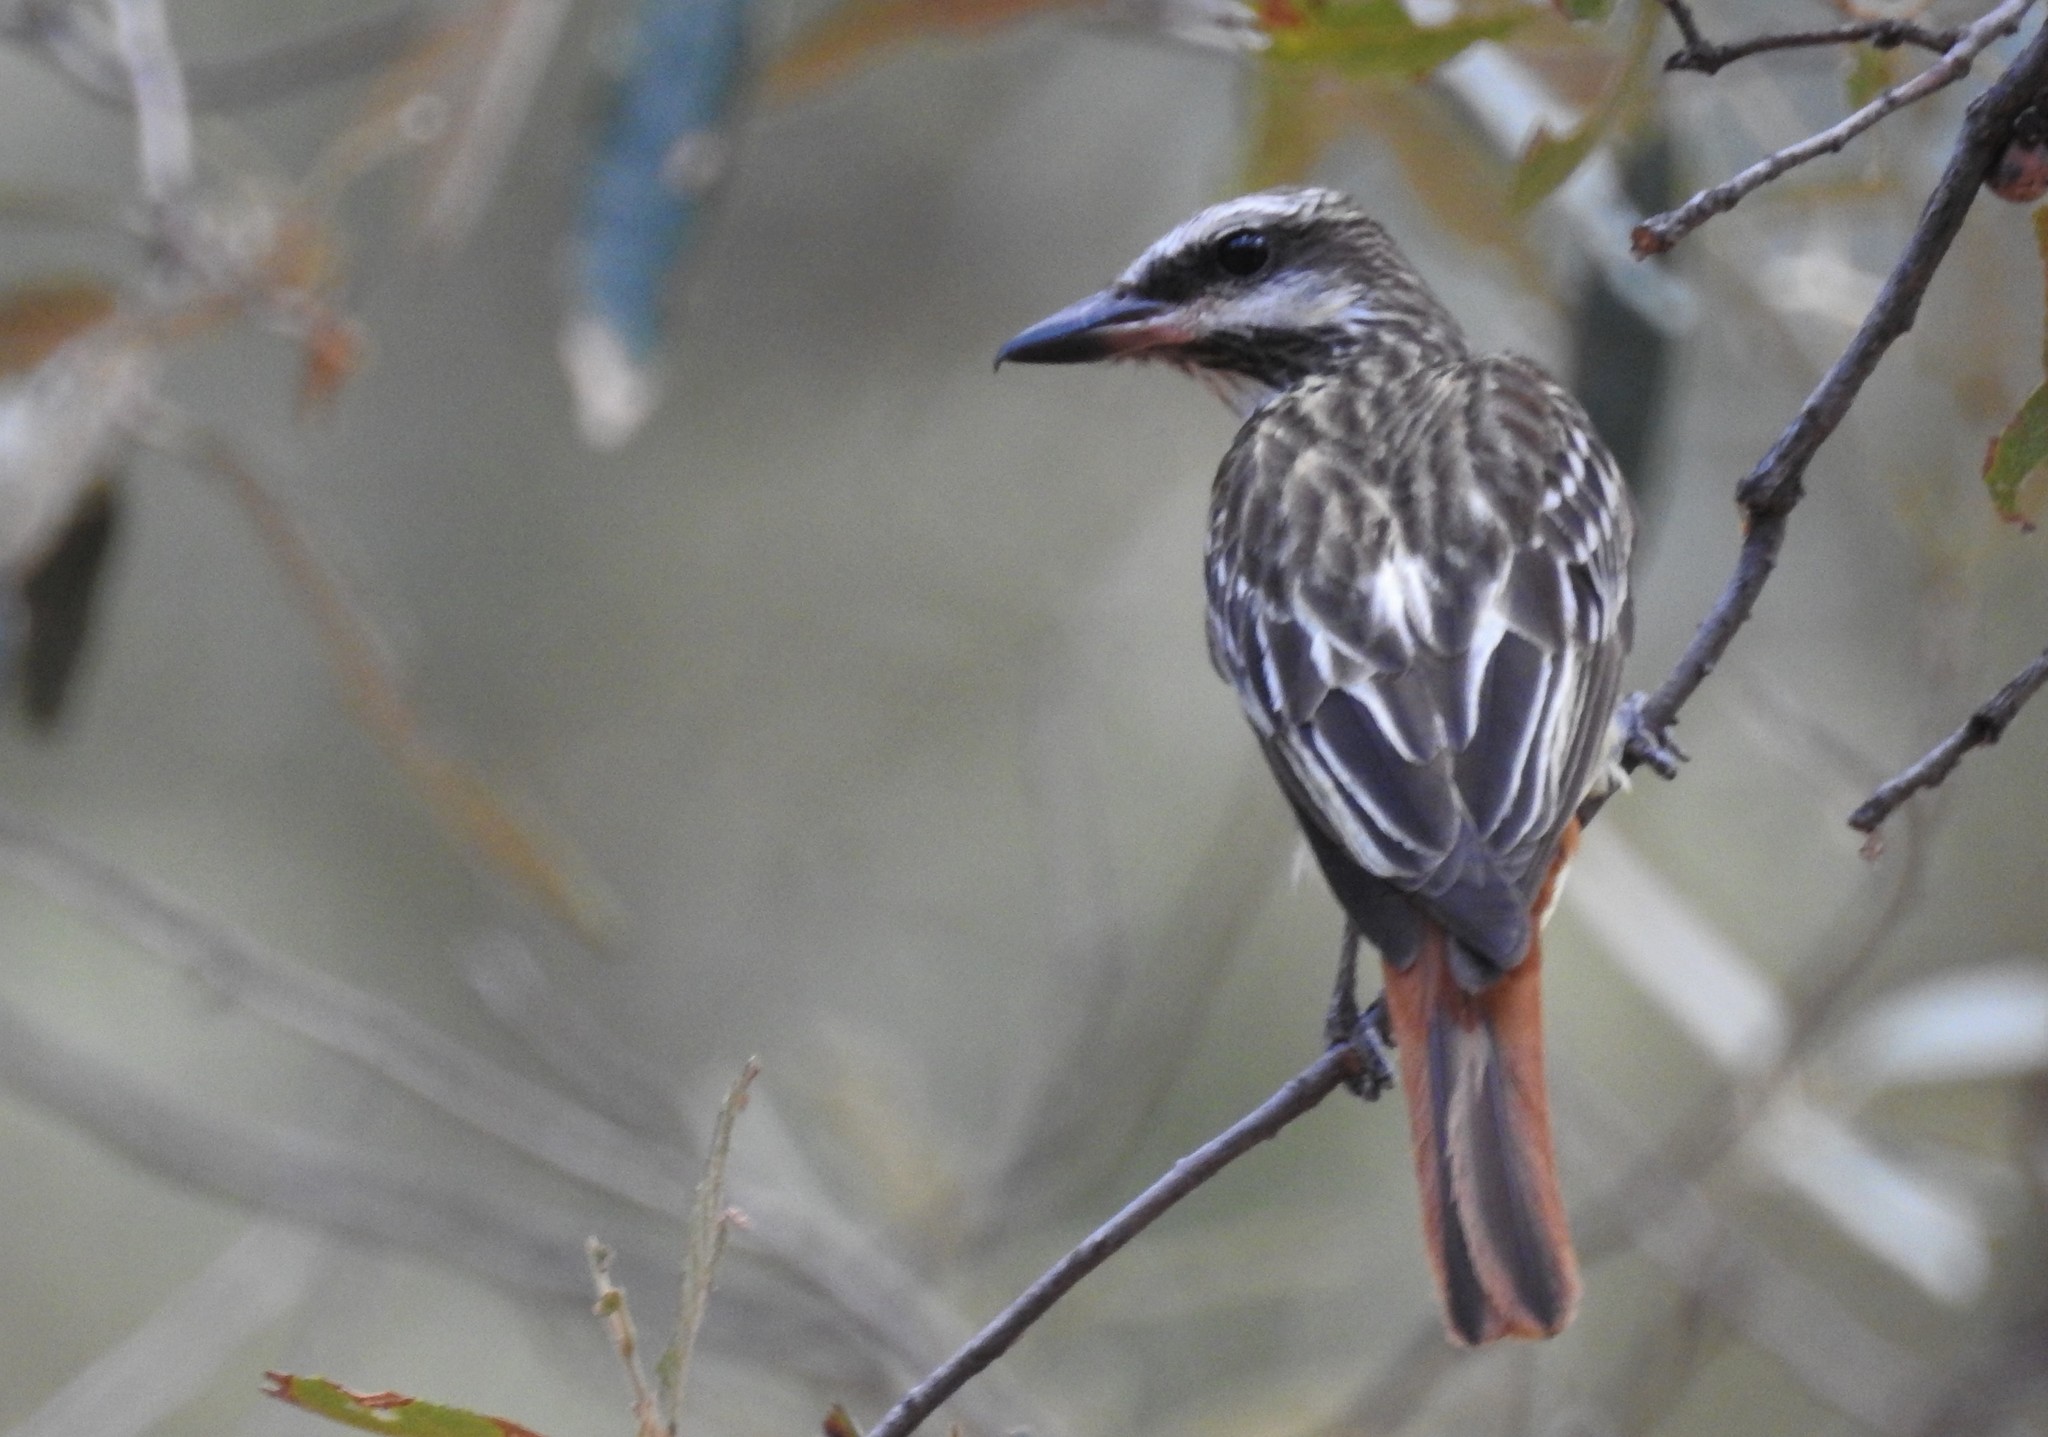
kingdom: Animalia
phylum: Chordata
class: Aves
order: Passeriformes
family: Tyrannidae
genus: Myiodynastes
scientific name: Myiodynastes luteiventris
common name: Sulphur-bellied flycatcher
